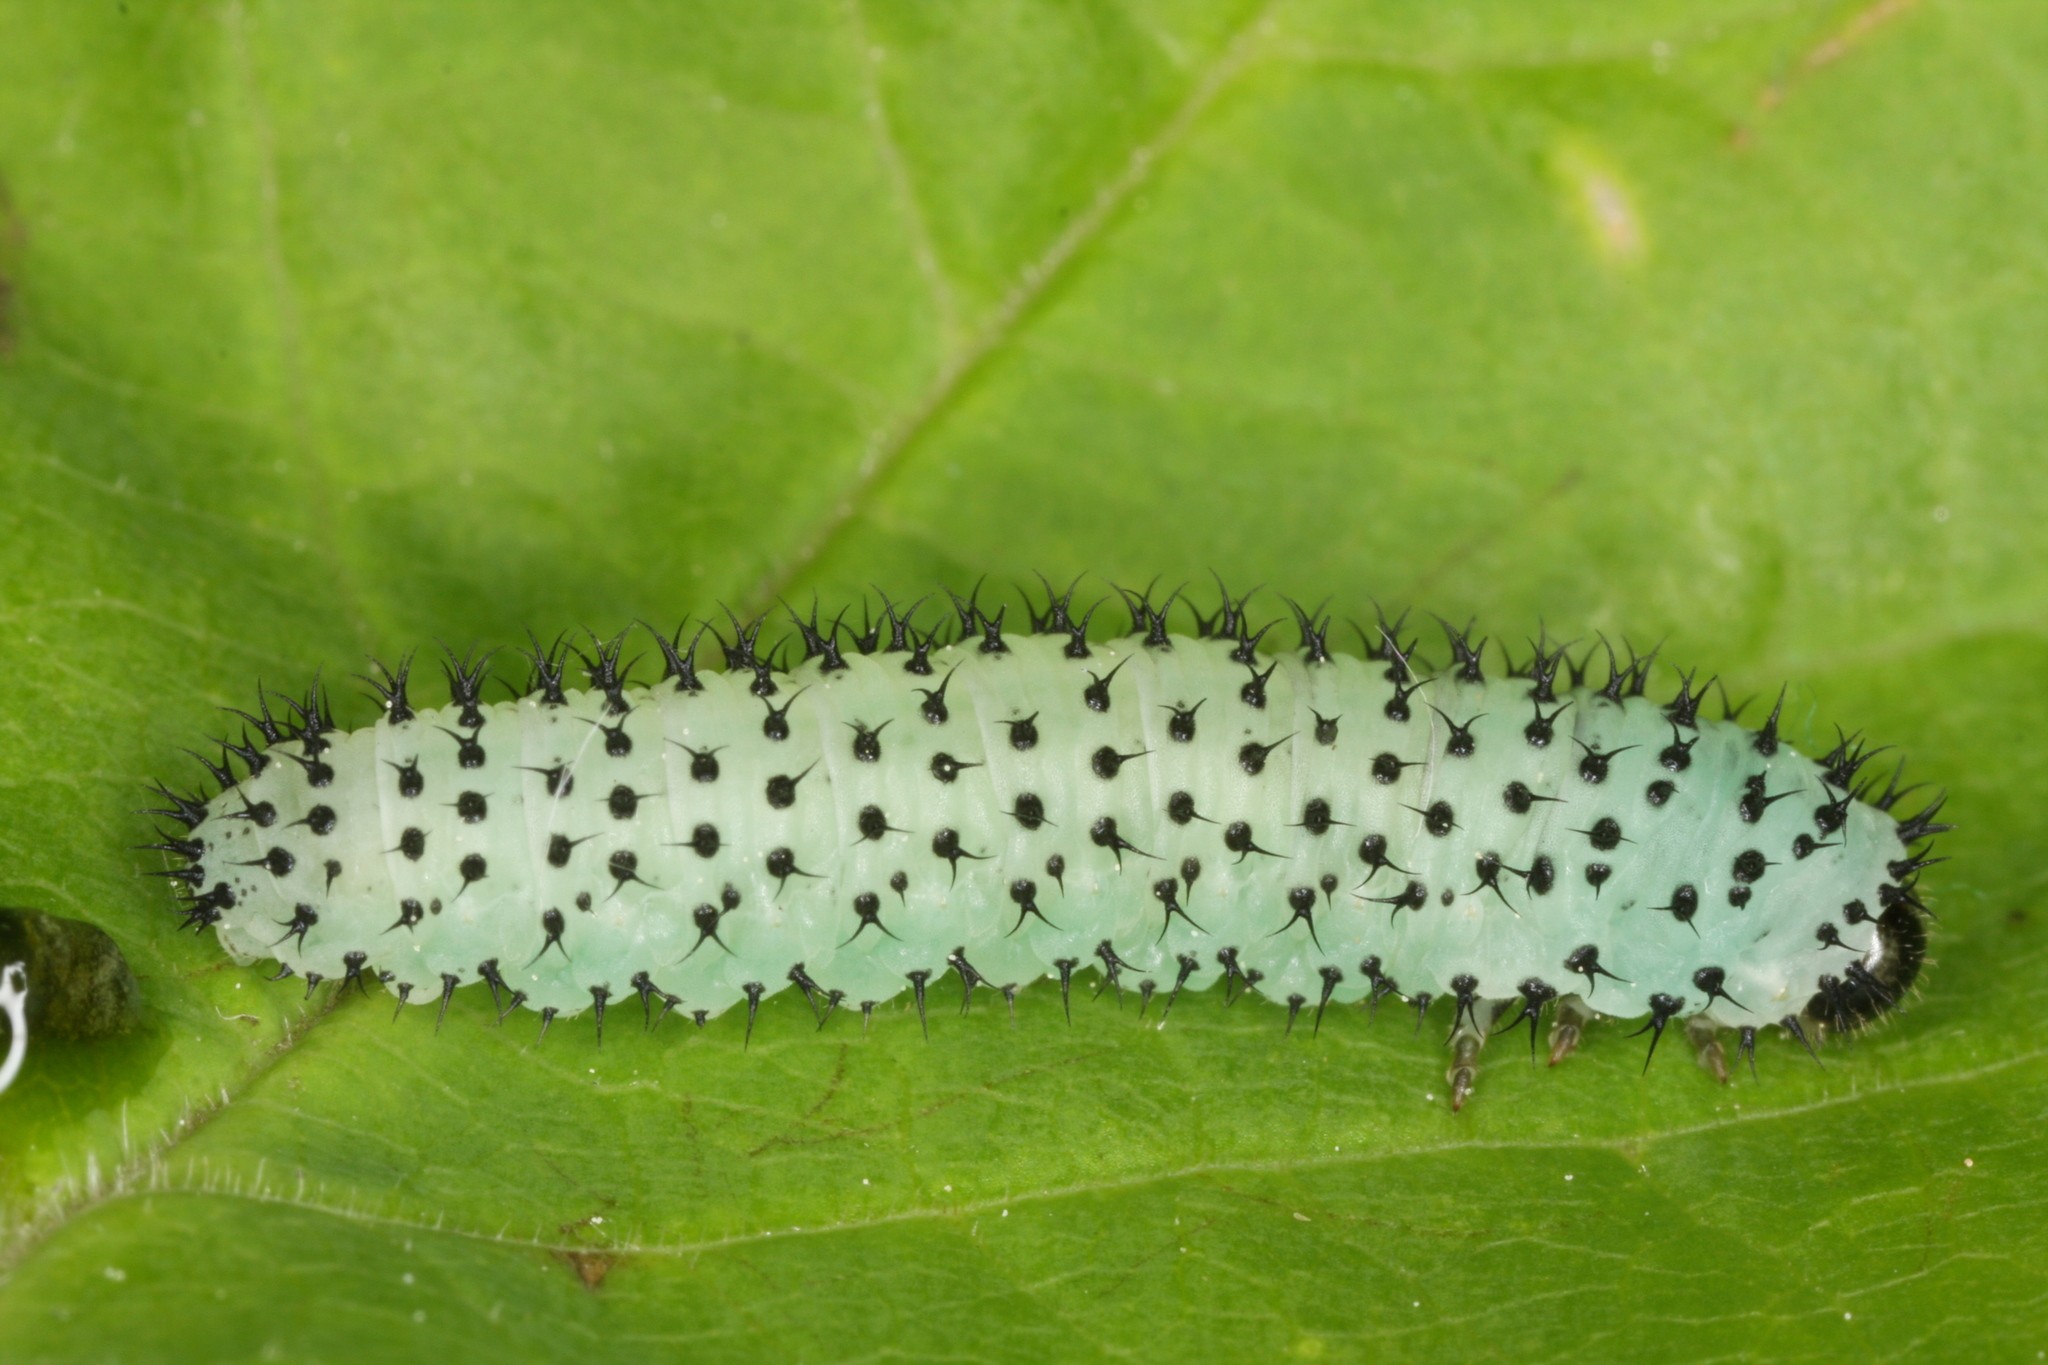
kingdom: Animalia
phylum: Arthropoda
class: Insecta
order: Hymenoptera
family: Tenthredinidae
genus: Periclista
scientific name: Periclista albida
